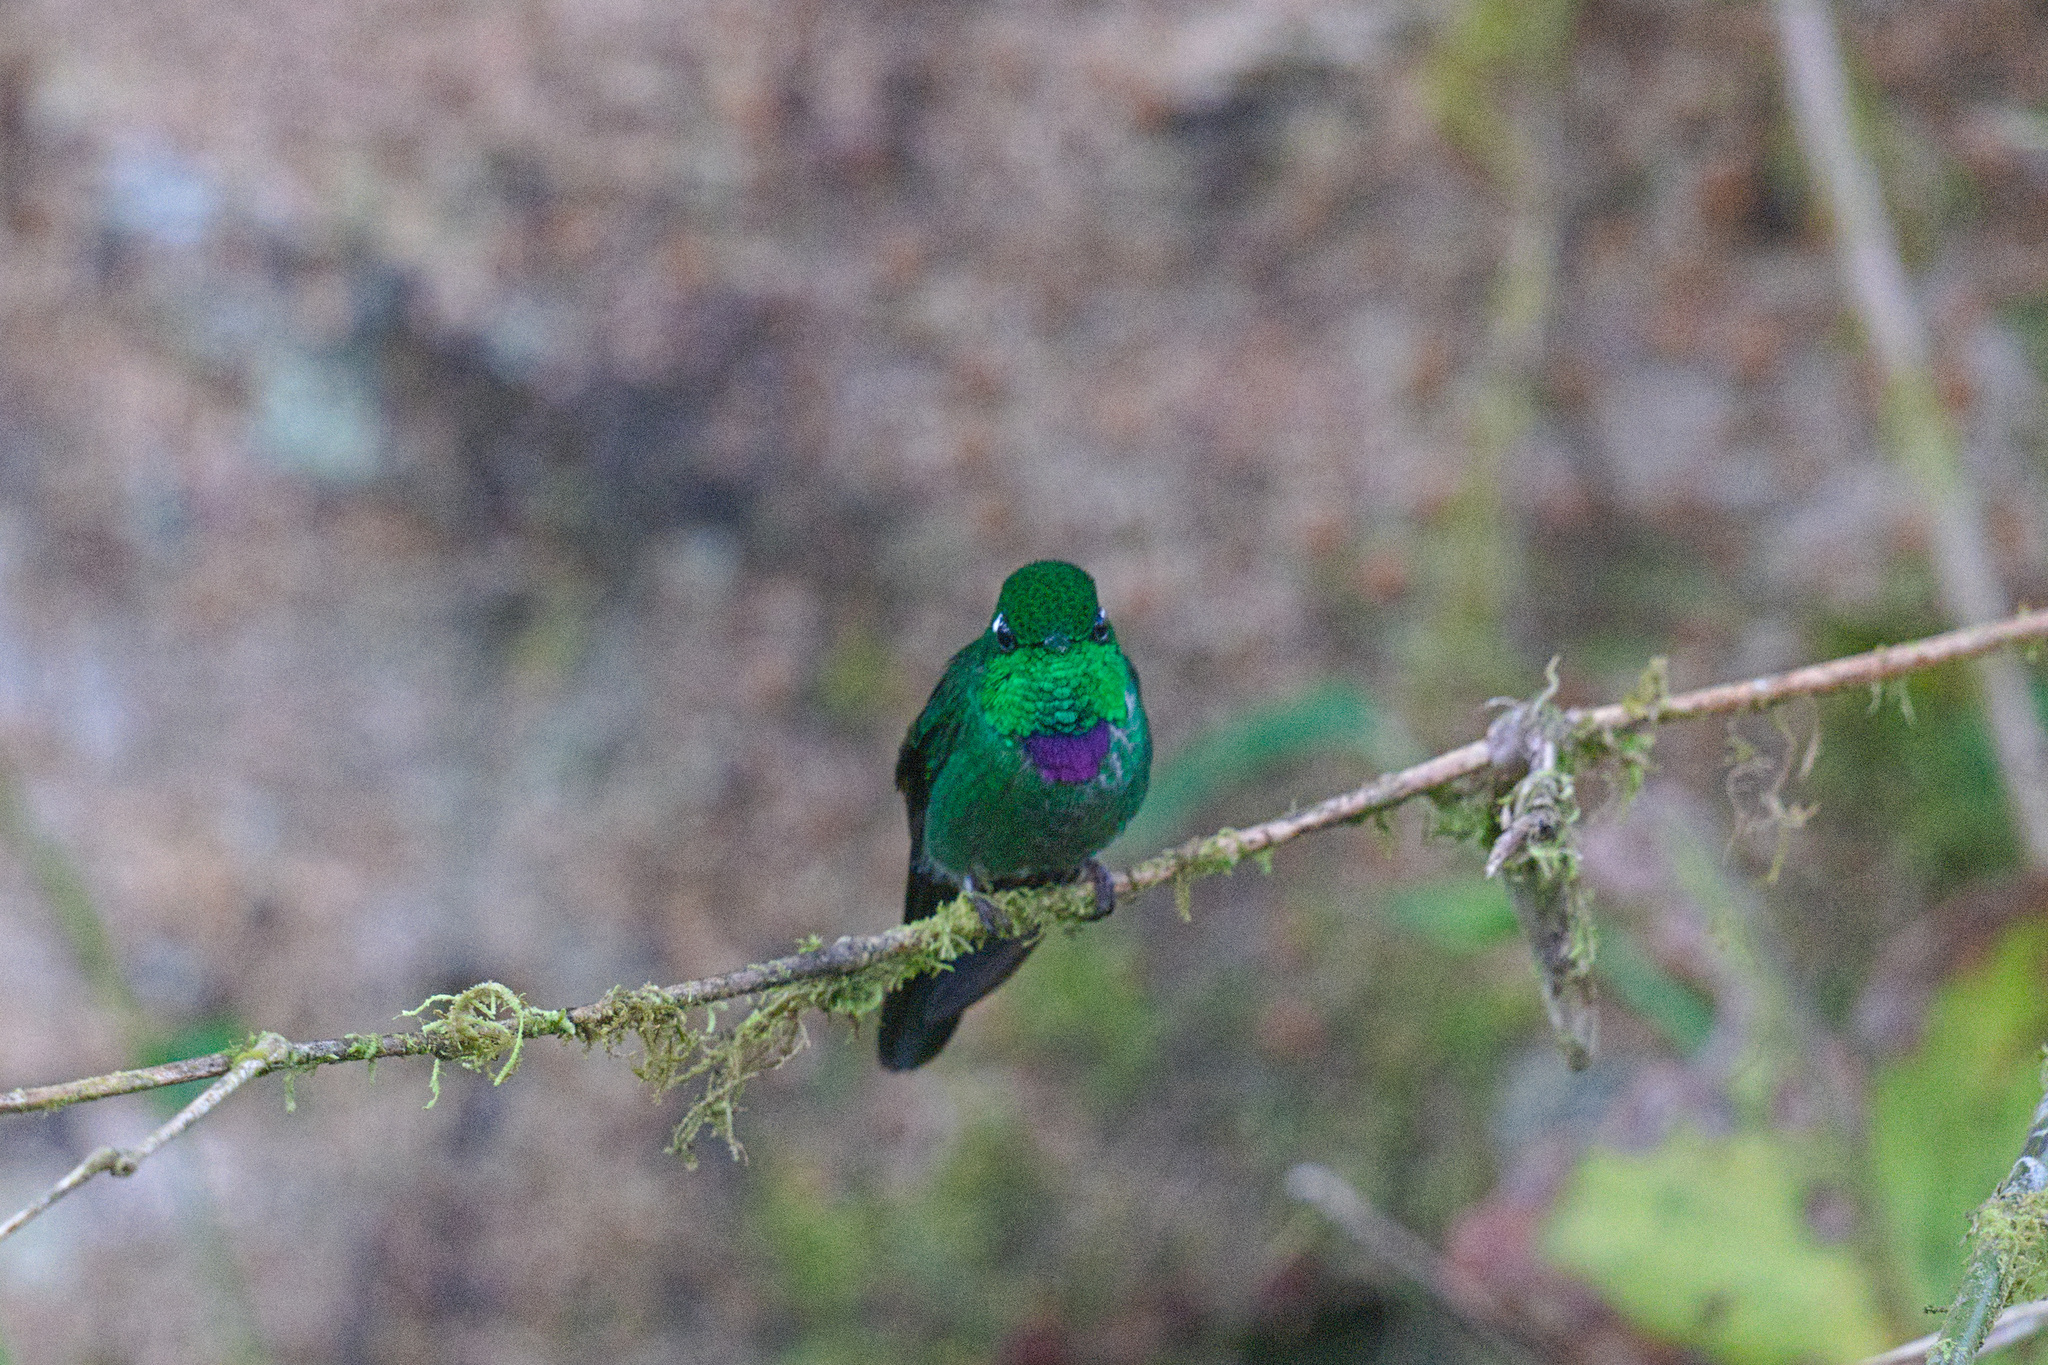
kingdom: Animalia
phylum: Chordata
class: Aves
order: Apodiformes
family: Trochilidae
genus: Urosticte
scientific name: Urosticte benjamini
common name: Purple-bibbed whitetip
